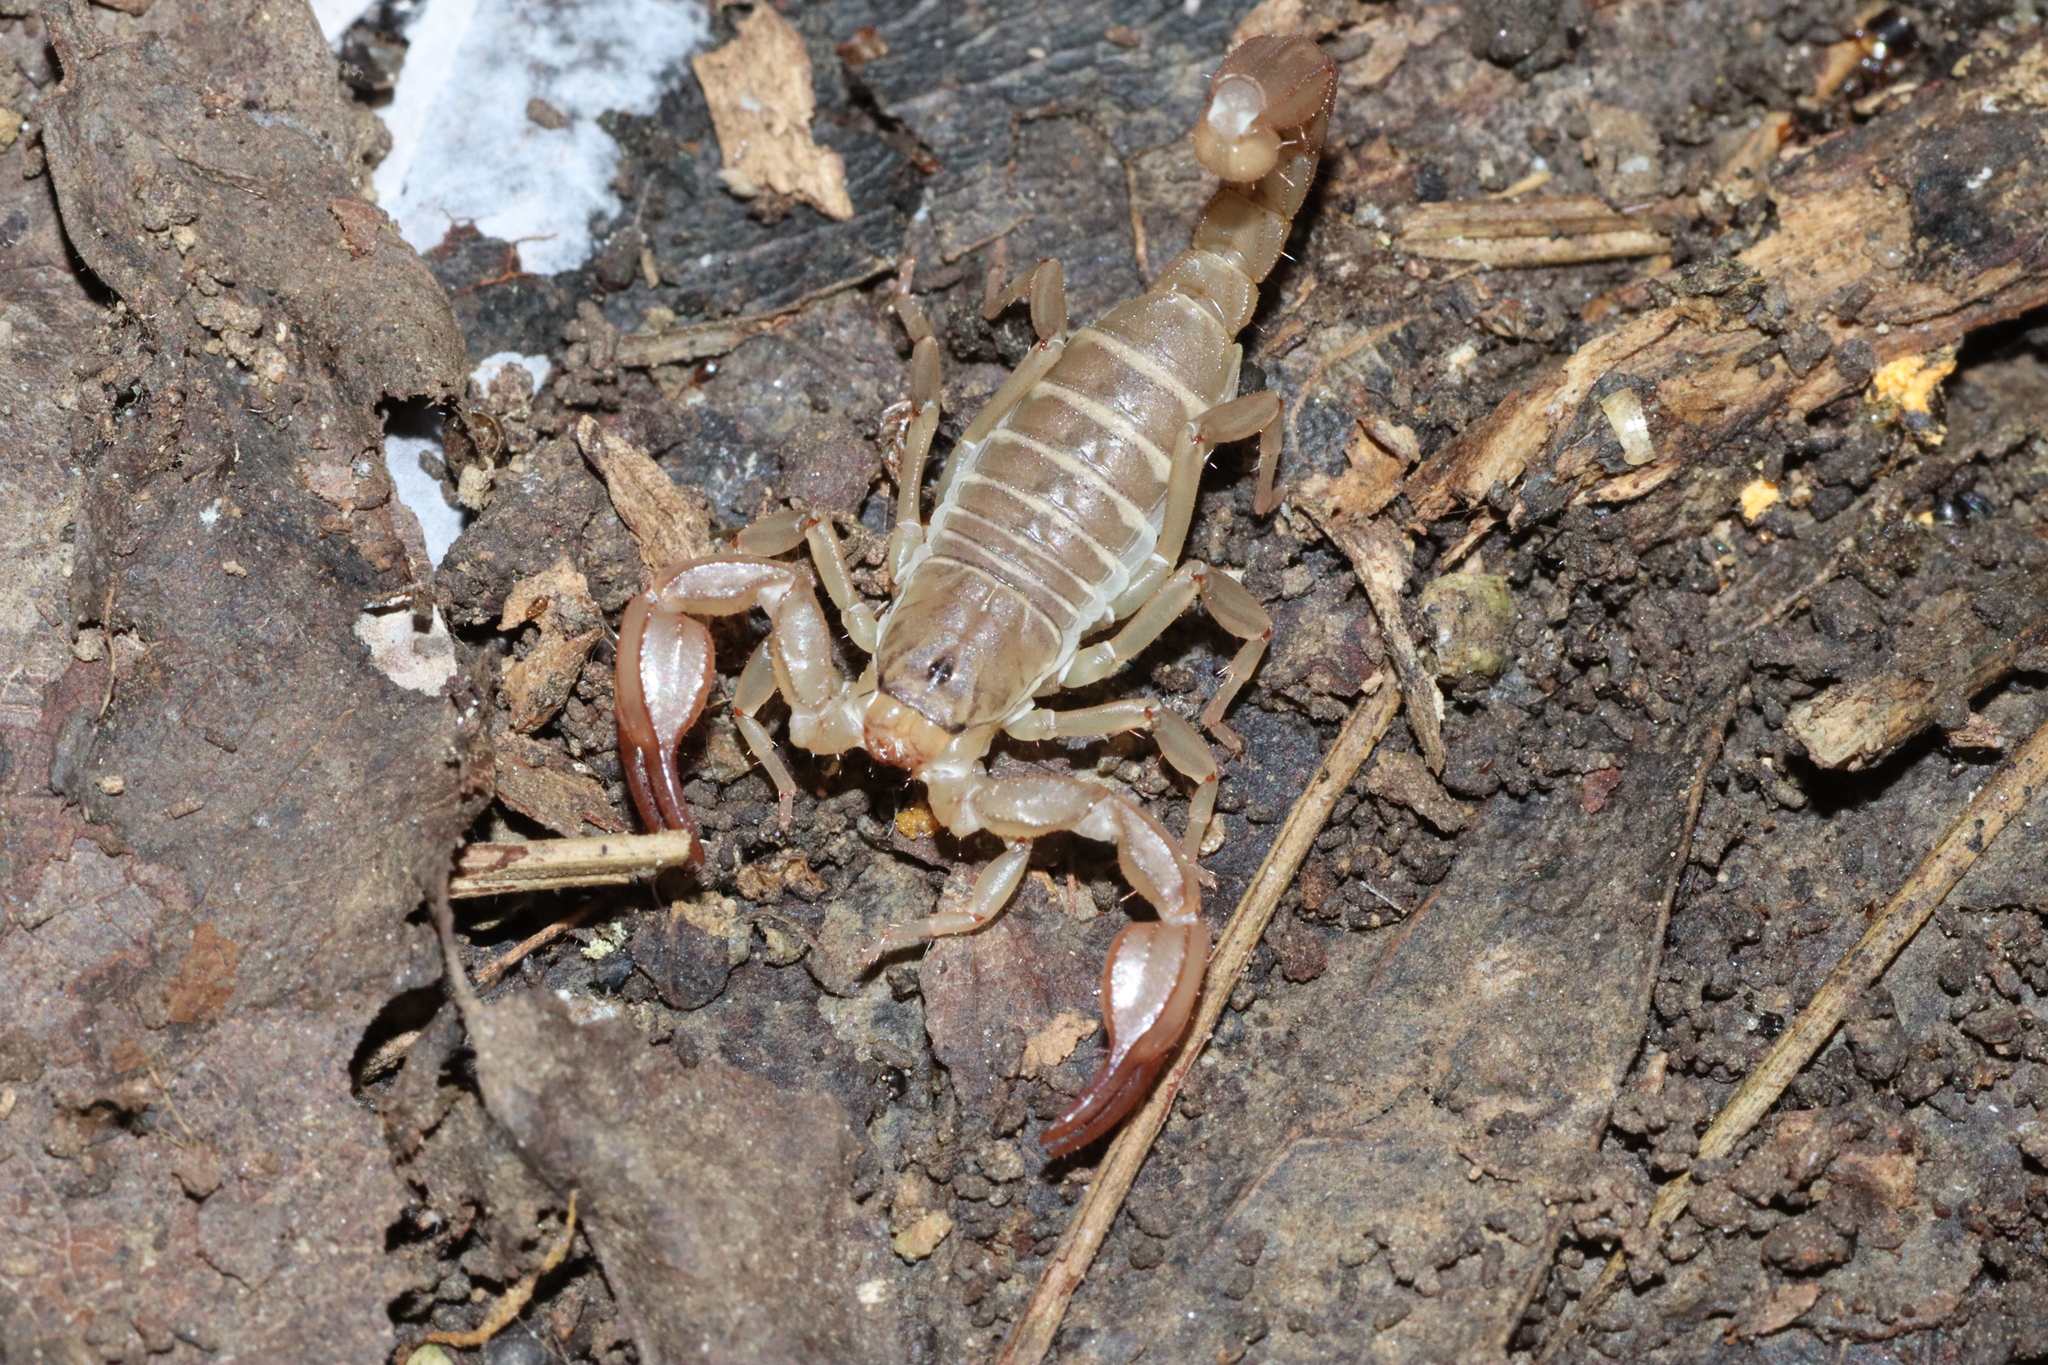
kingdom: Animalia
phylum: Arthropoda
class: Arachnida
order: Scorpiones
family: Iuridae
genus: Neocalchas
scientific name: Neocalchas gruberi
